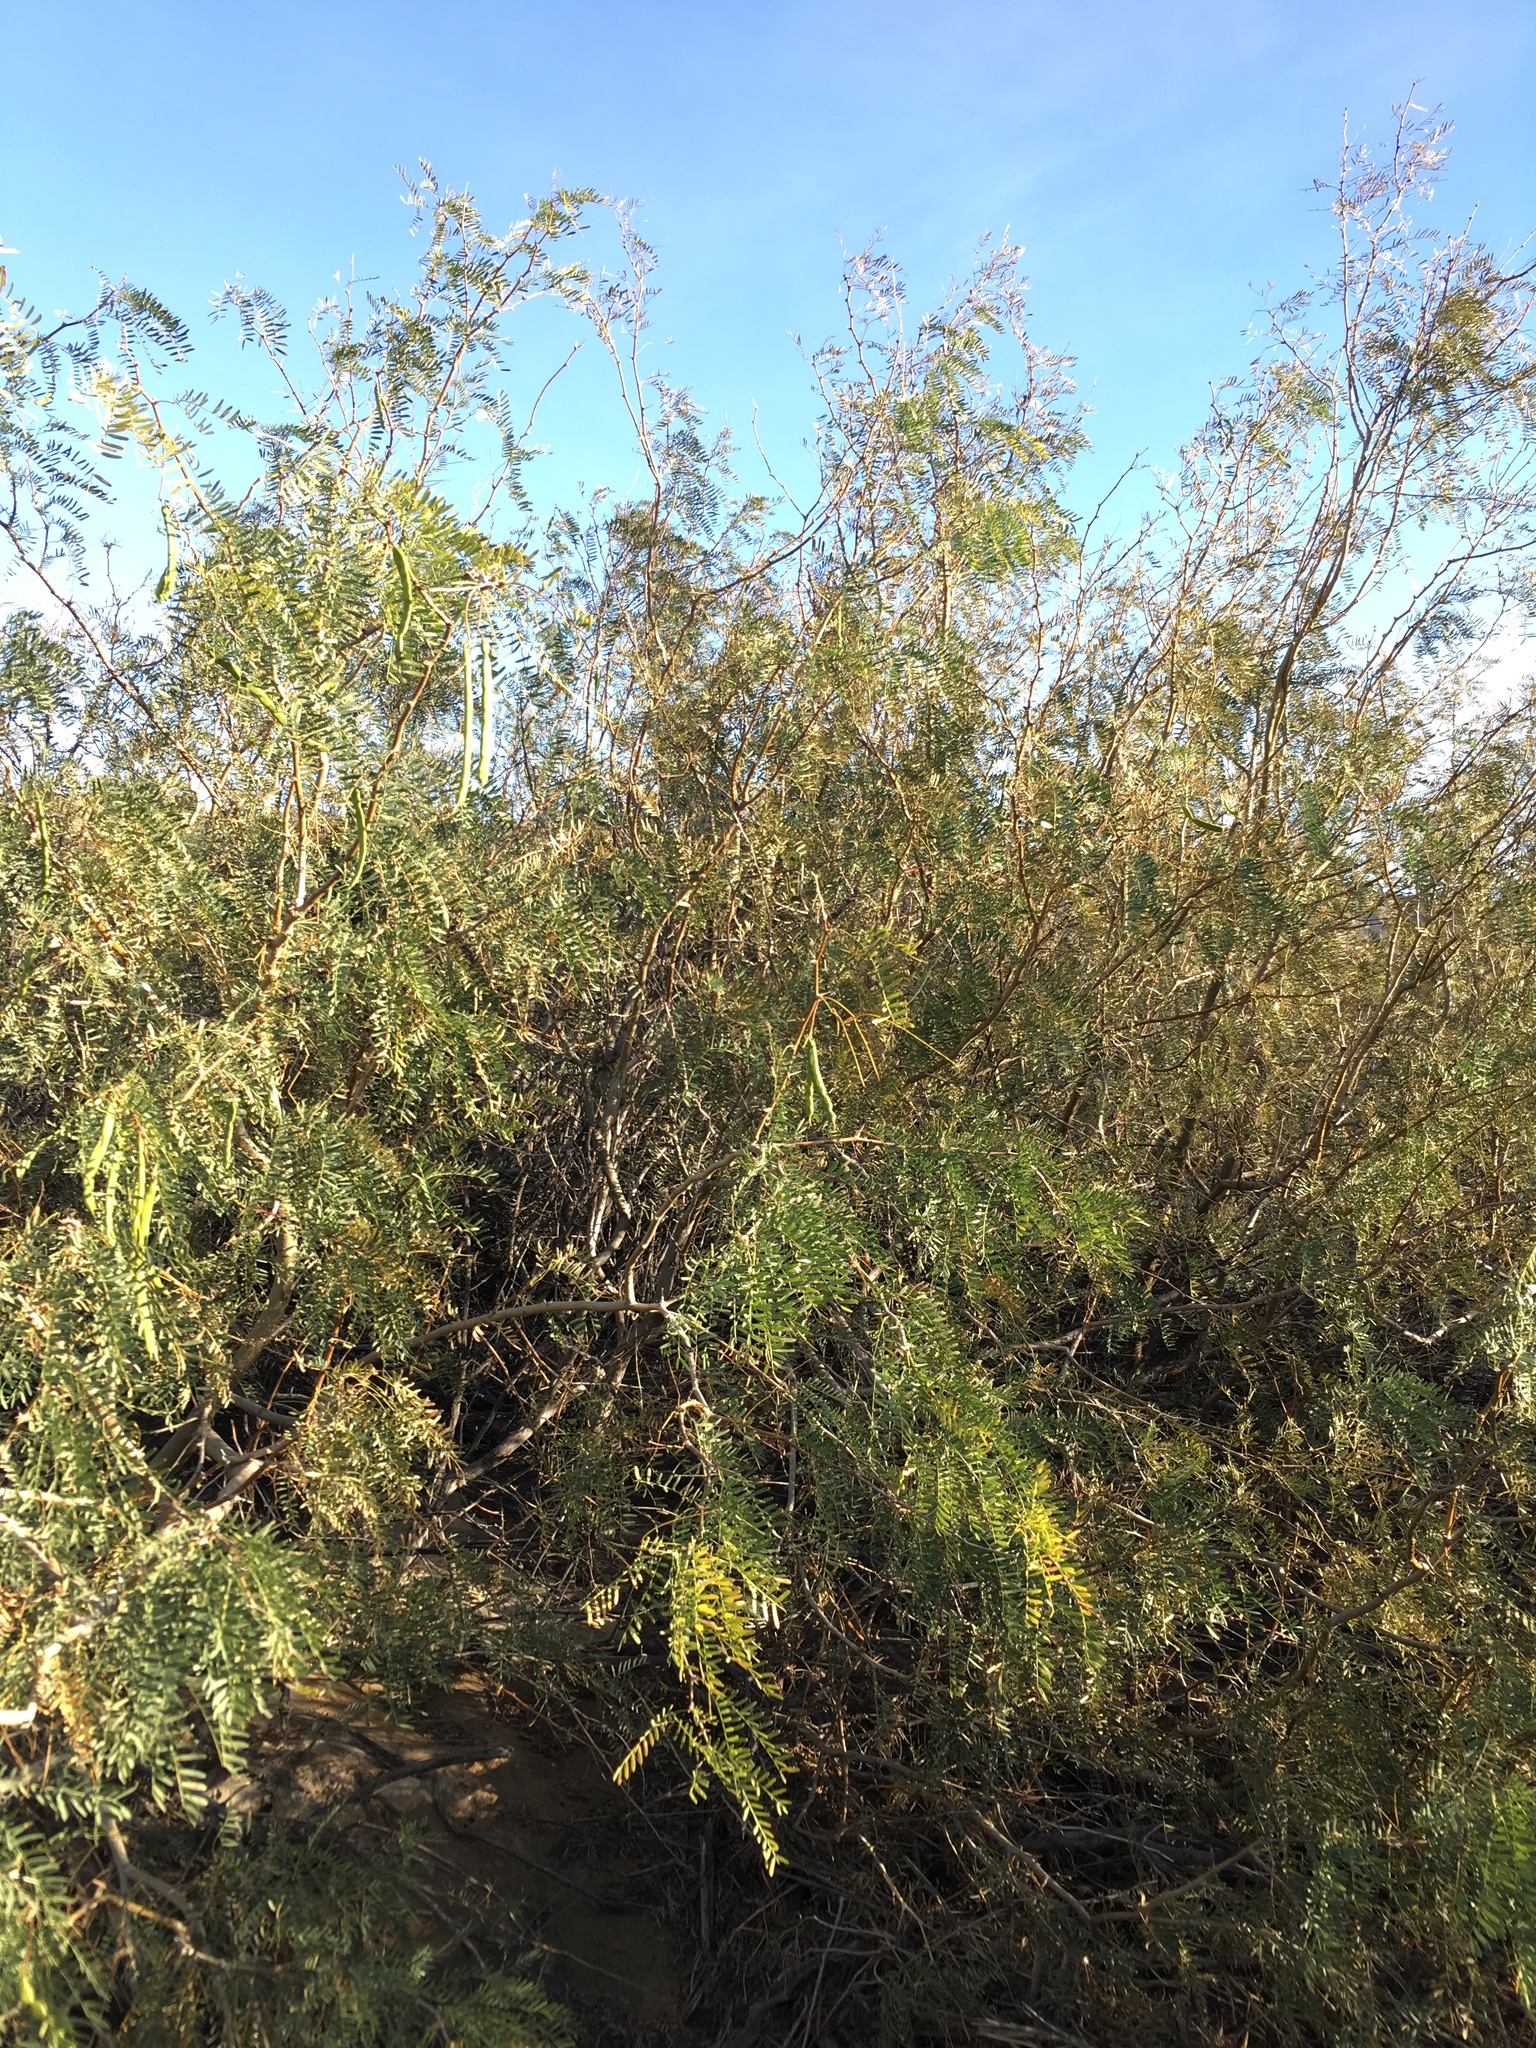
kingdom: Plantae
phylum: Tracheophyta
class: Magnoliopsida
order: Fabales
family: Fabaceae
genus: Prosopis
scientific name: Prosopis pubescens
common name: Screw-bean
